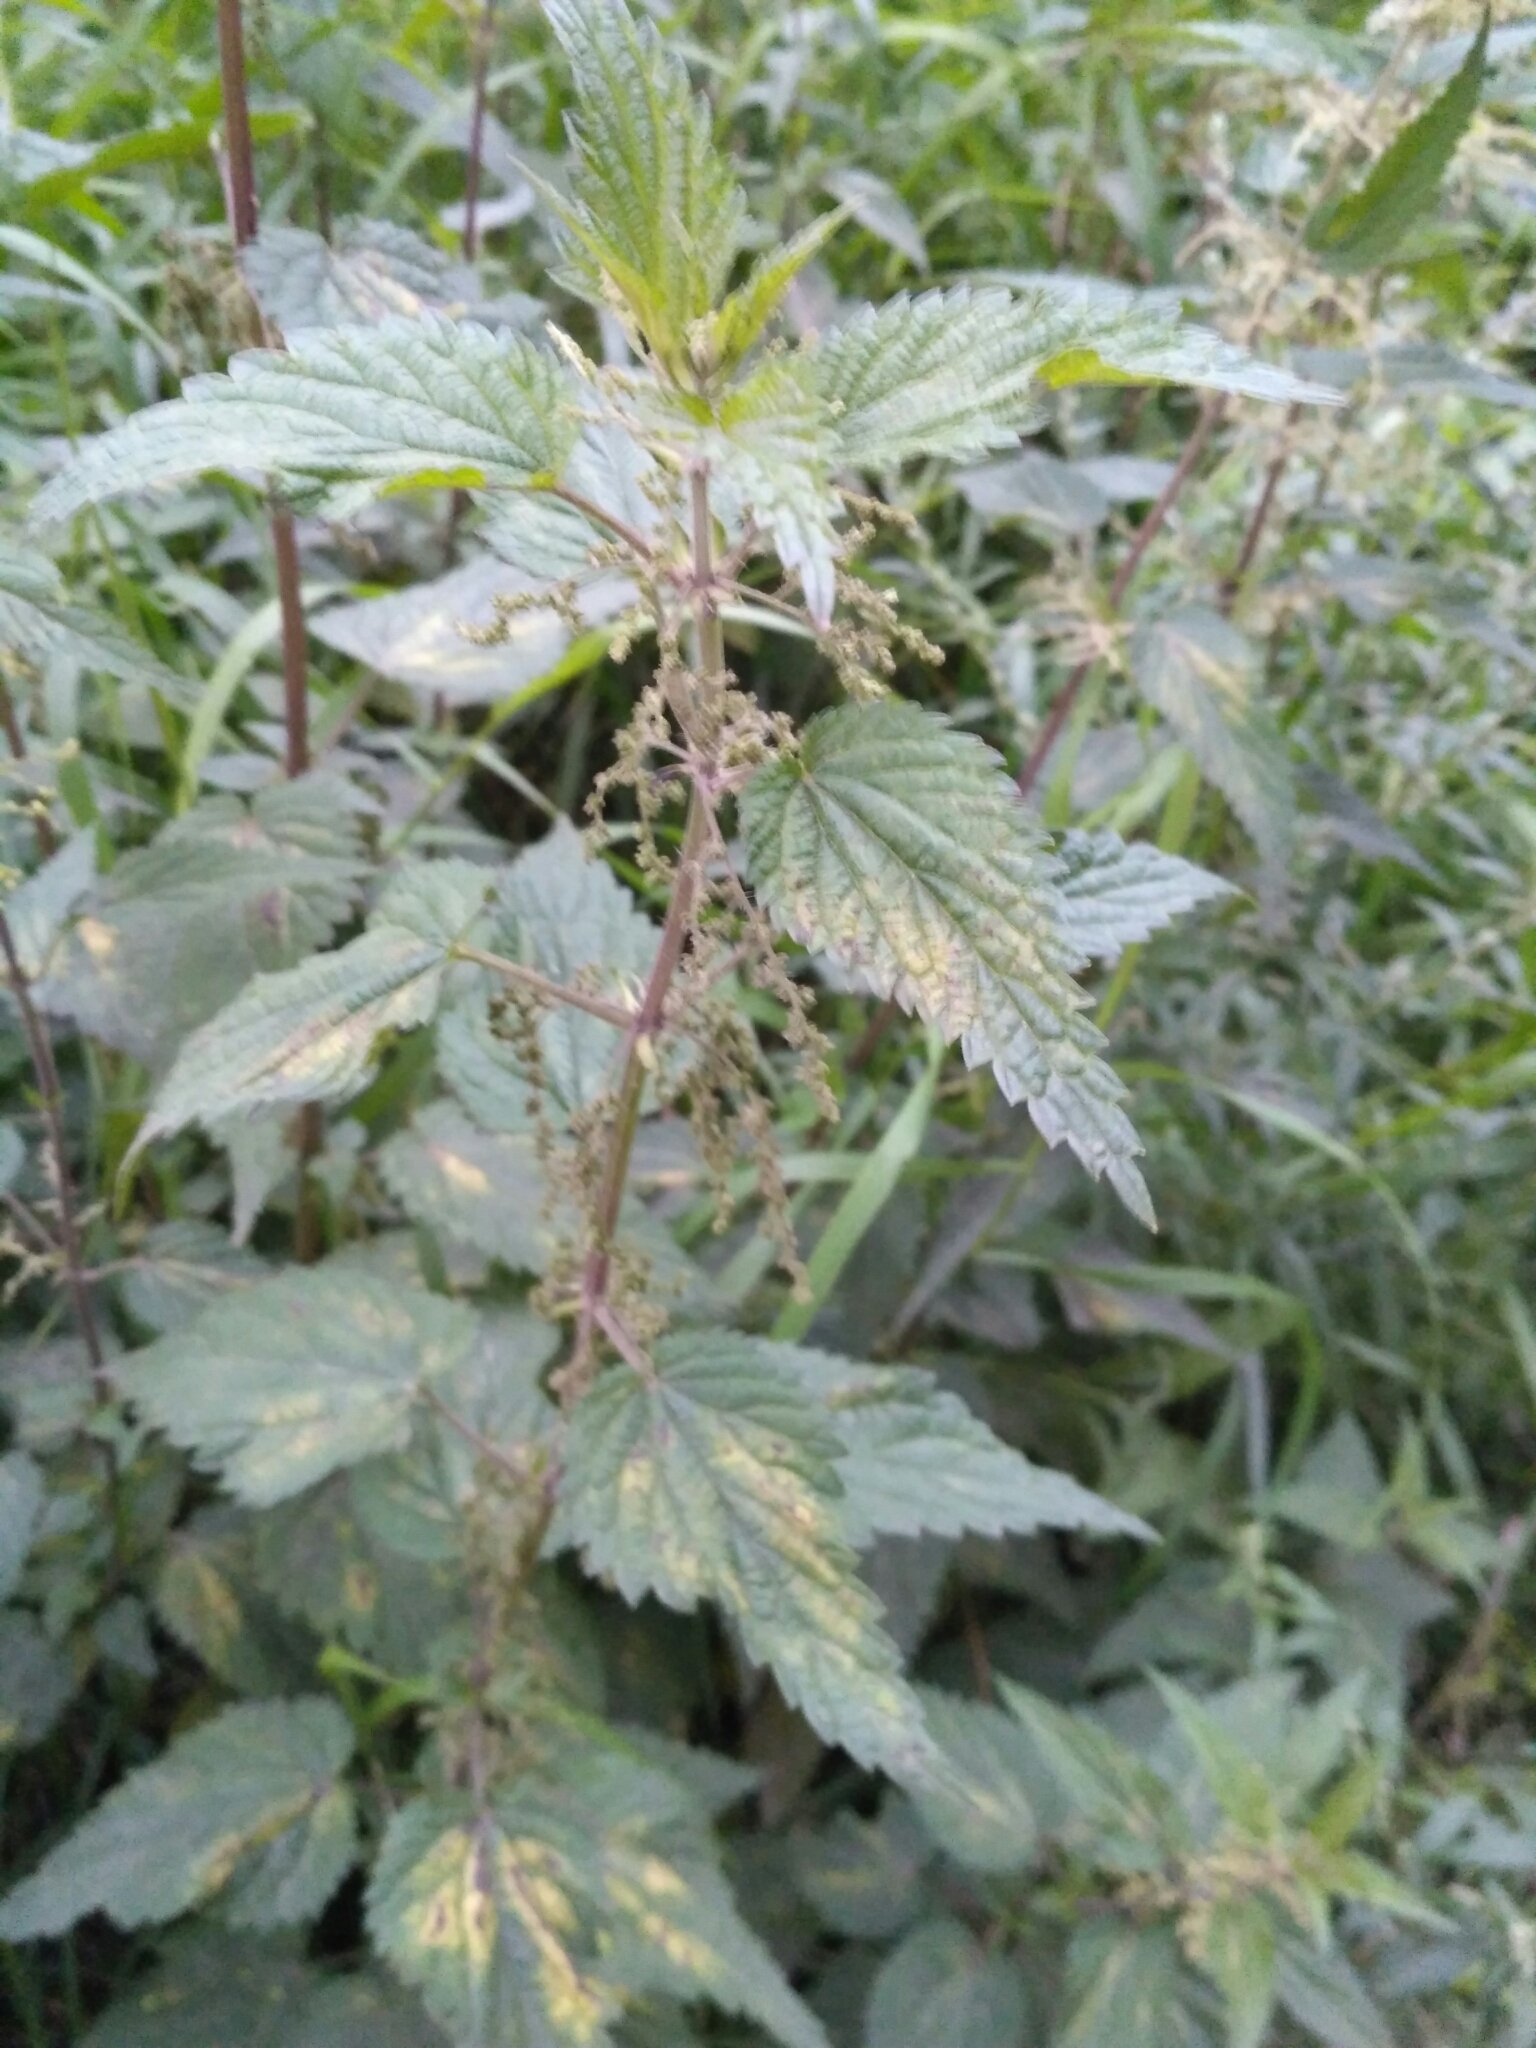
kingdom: Plantae
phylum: Tracheophyta
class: Magnoliopsida
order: Rosales
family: Urticaceae
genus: Urtica
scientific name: Urtica dioica
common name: Common nettle
